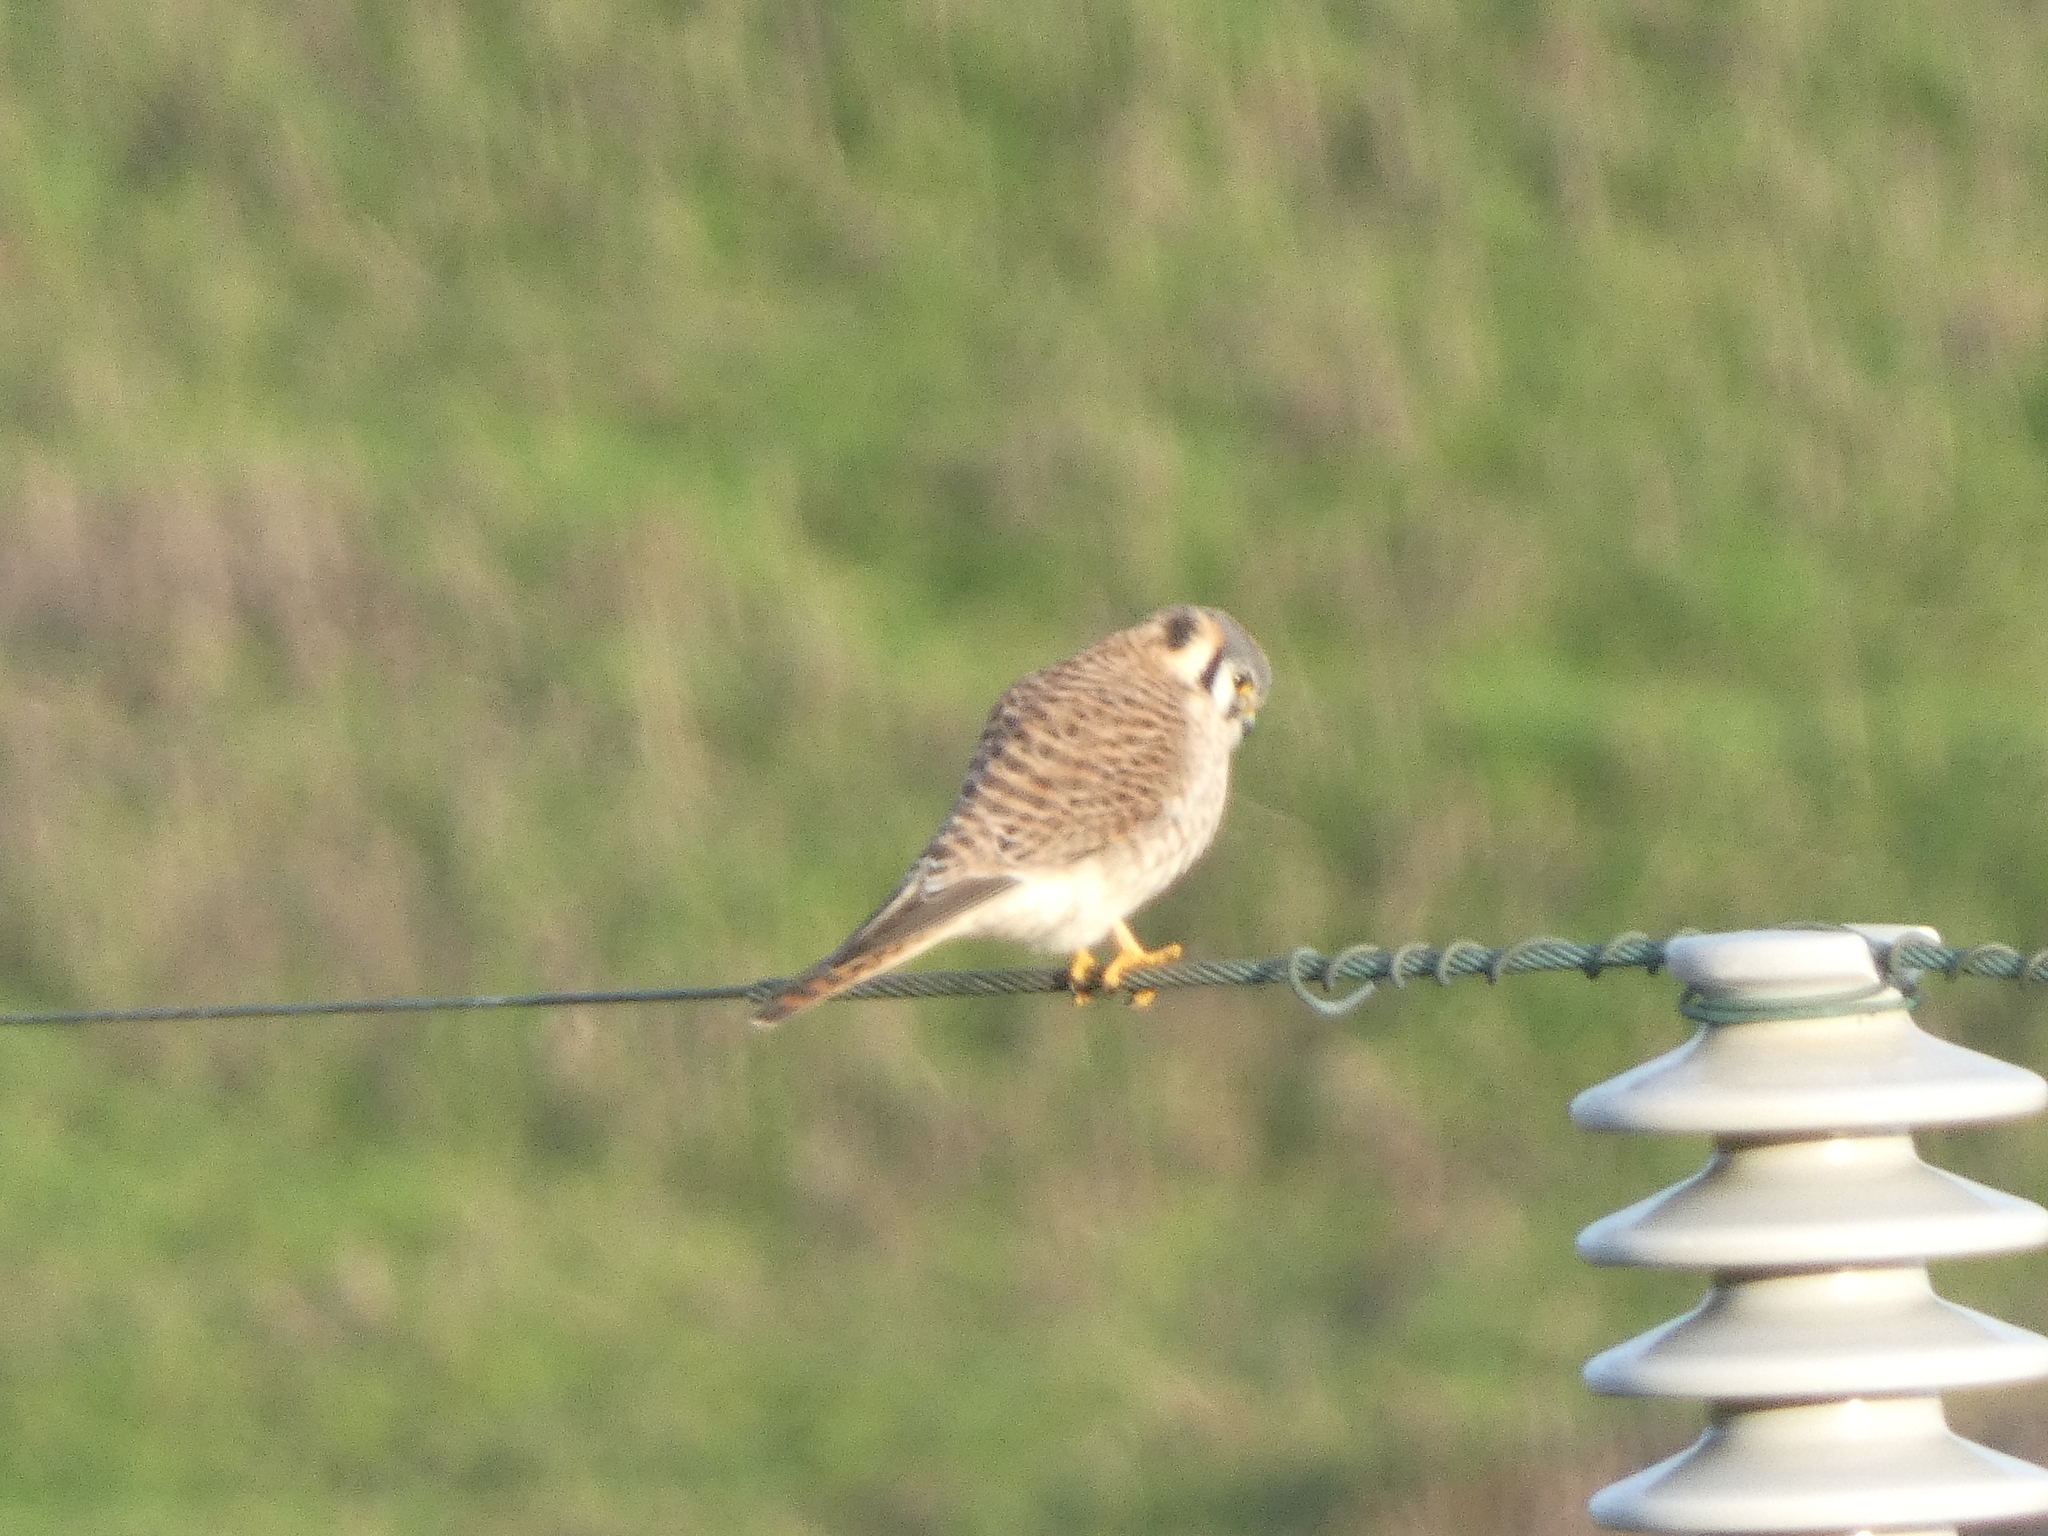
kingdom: Animalia
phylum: Chordata
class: Aves
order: Falconiformes
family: Falconidae
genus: Falco
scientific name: Falco sparverius
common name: American kestrel
